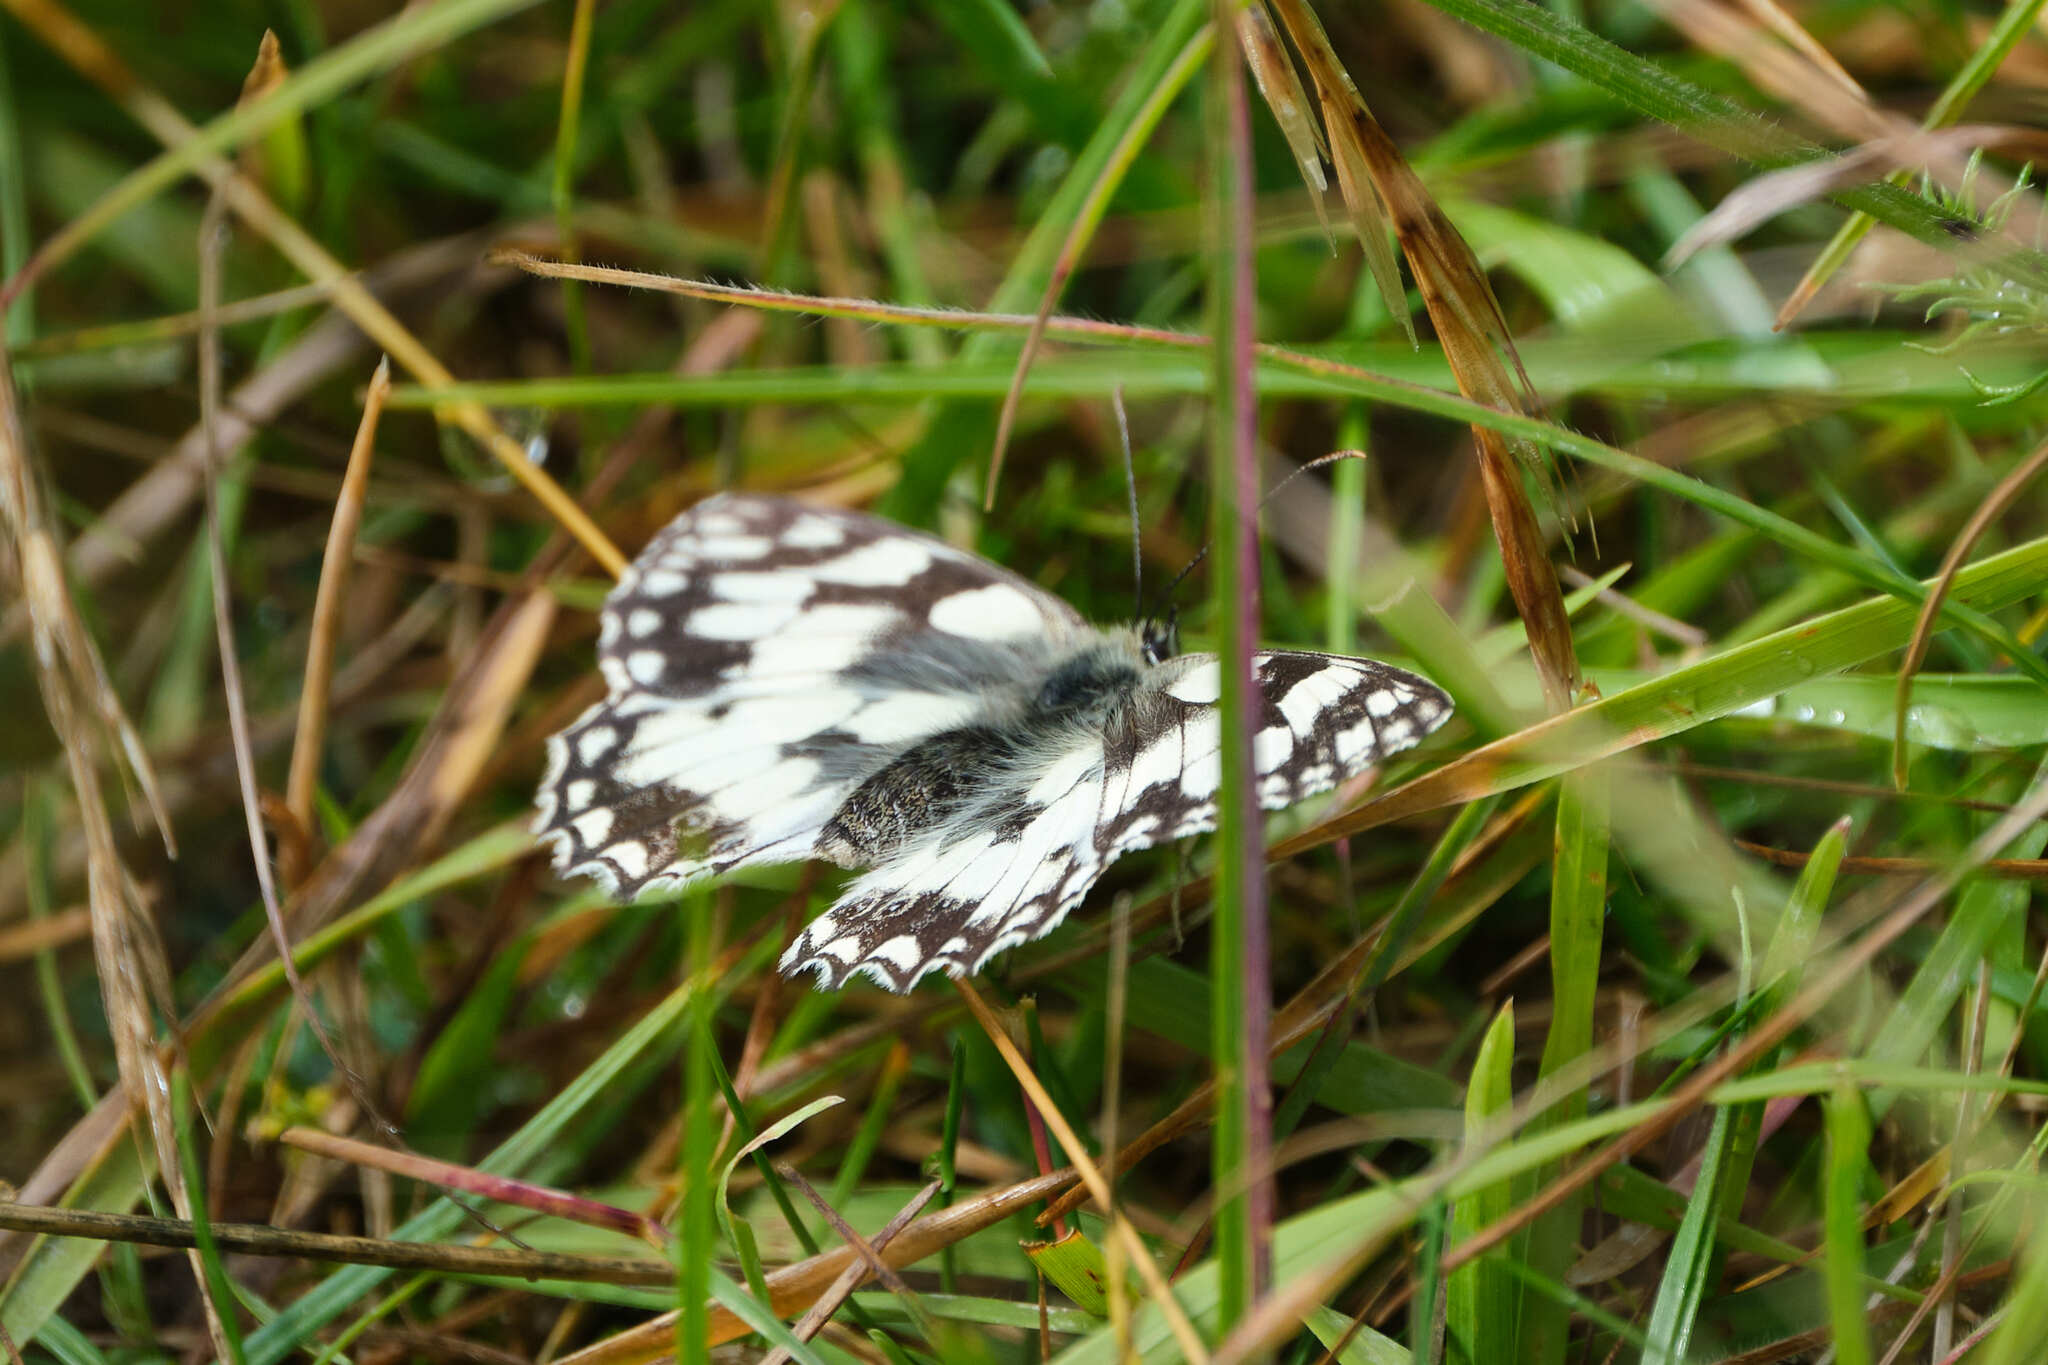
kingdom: Animalia
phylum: Arthropoda
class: Insecta
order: Lepidoptera
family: Nymphalidae
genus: Melanargia
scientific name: Melanargia galathea
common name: Marbled white
